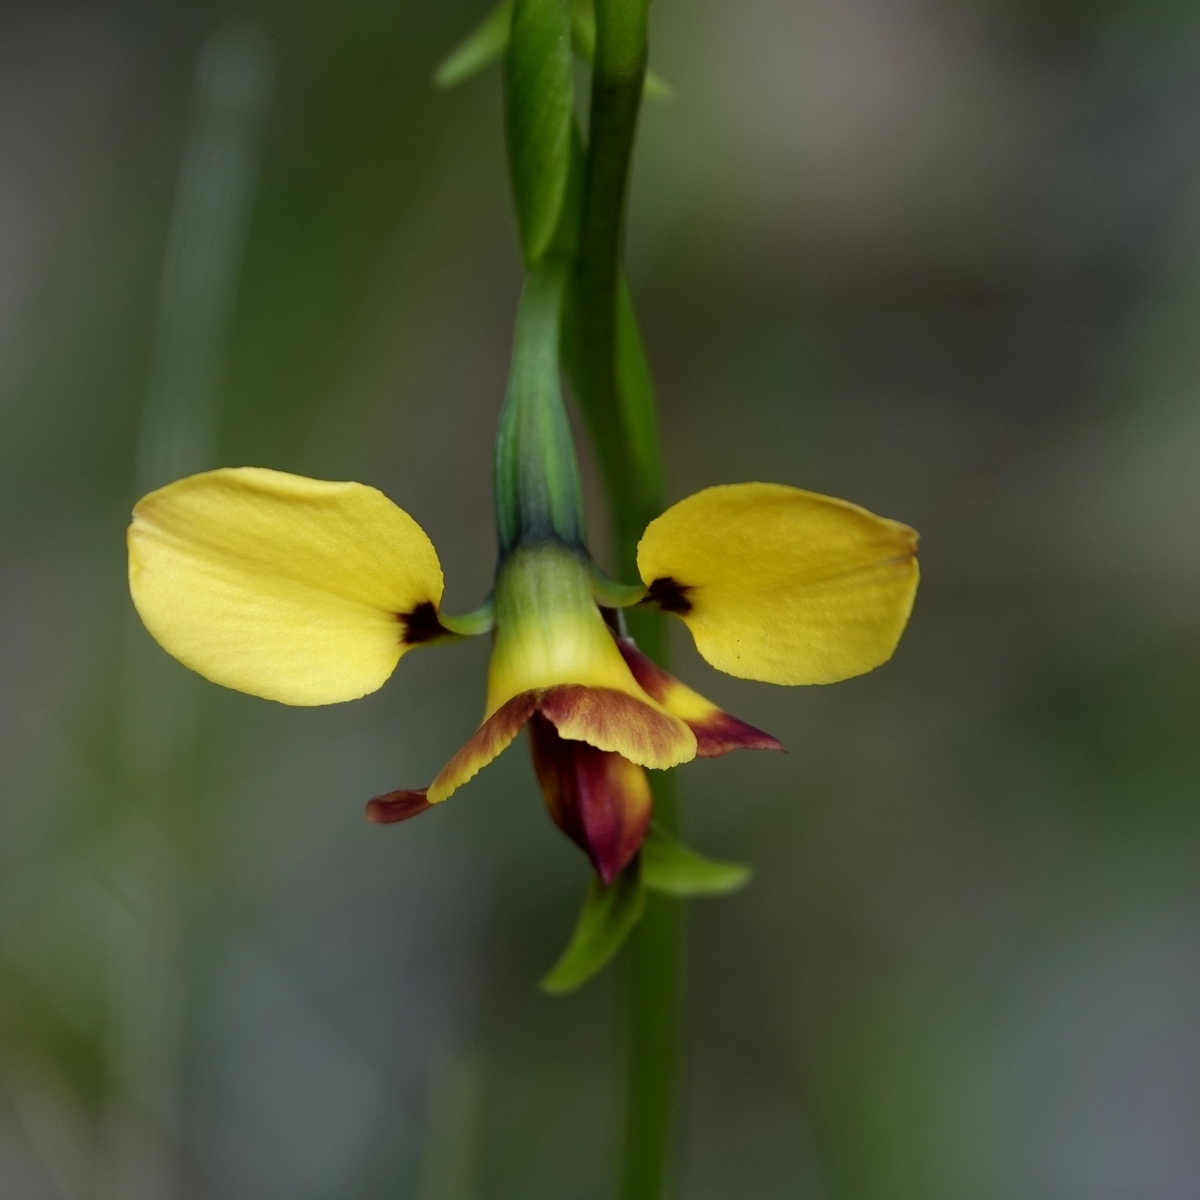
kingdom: Plantae
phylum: Tracheophyta
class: Liliopsida
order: Asparagales
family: Orchidaceae
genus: Diuris
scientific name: Diuris orientis
